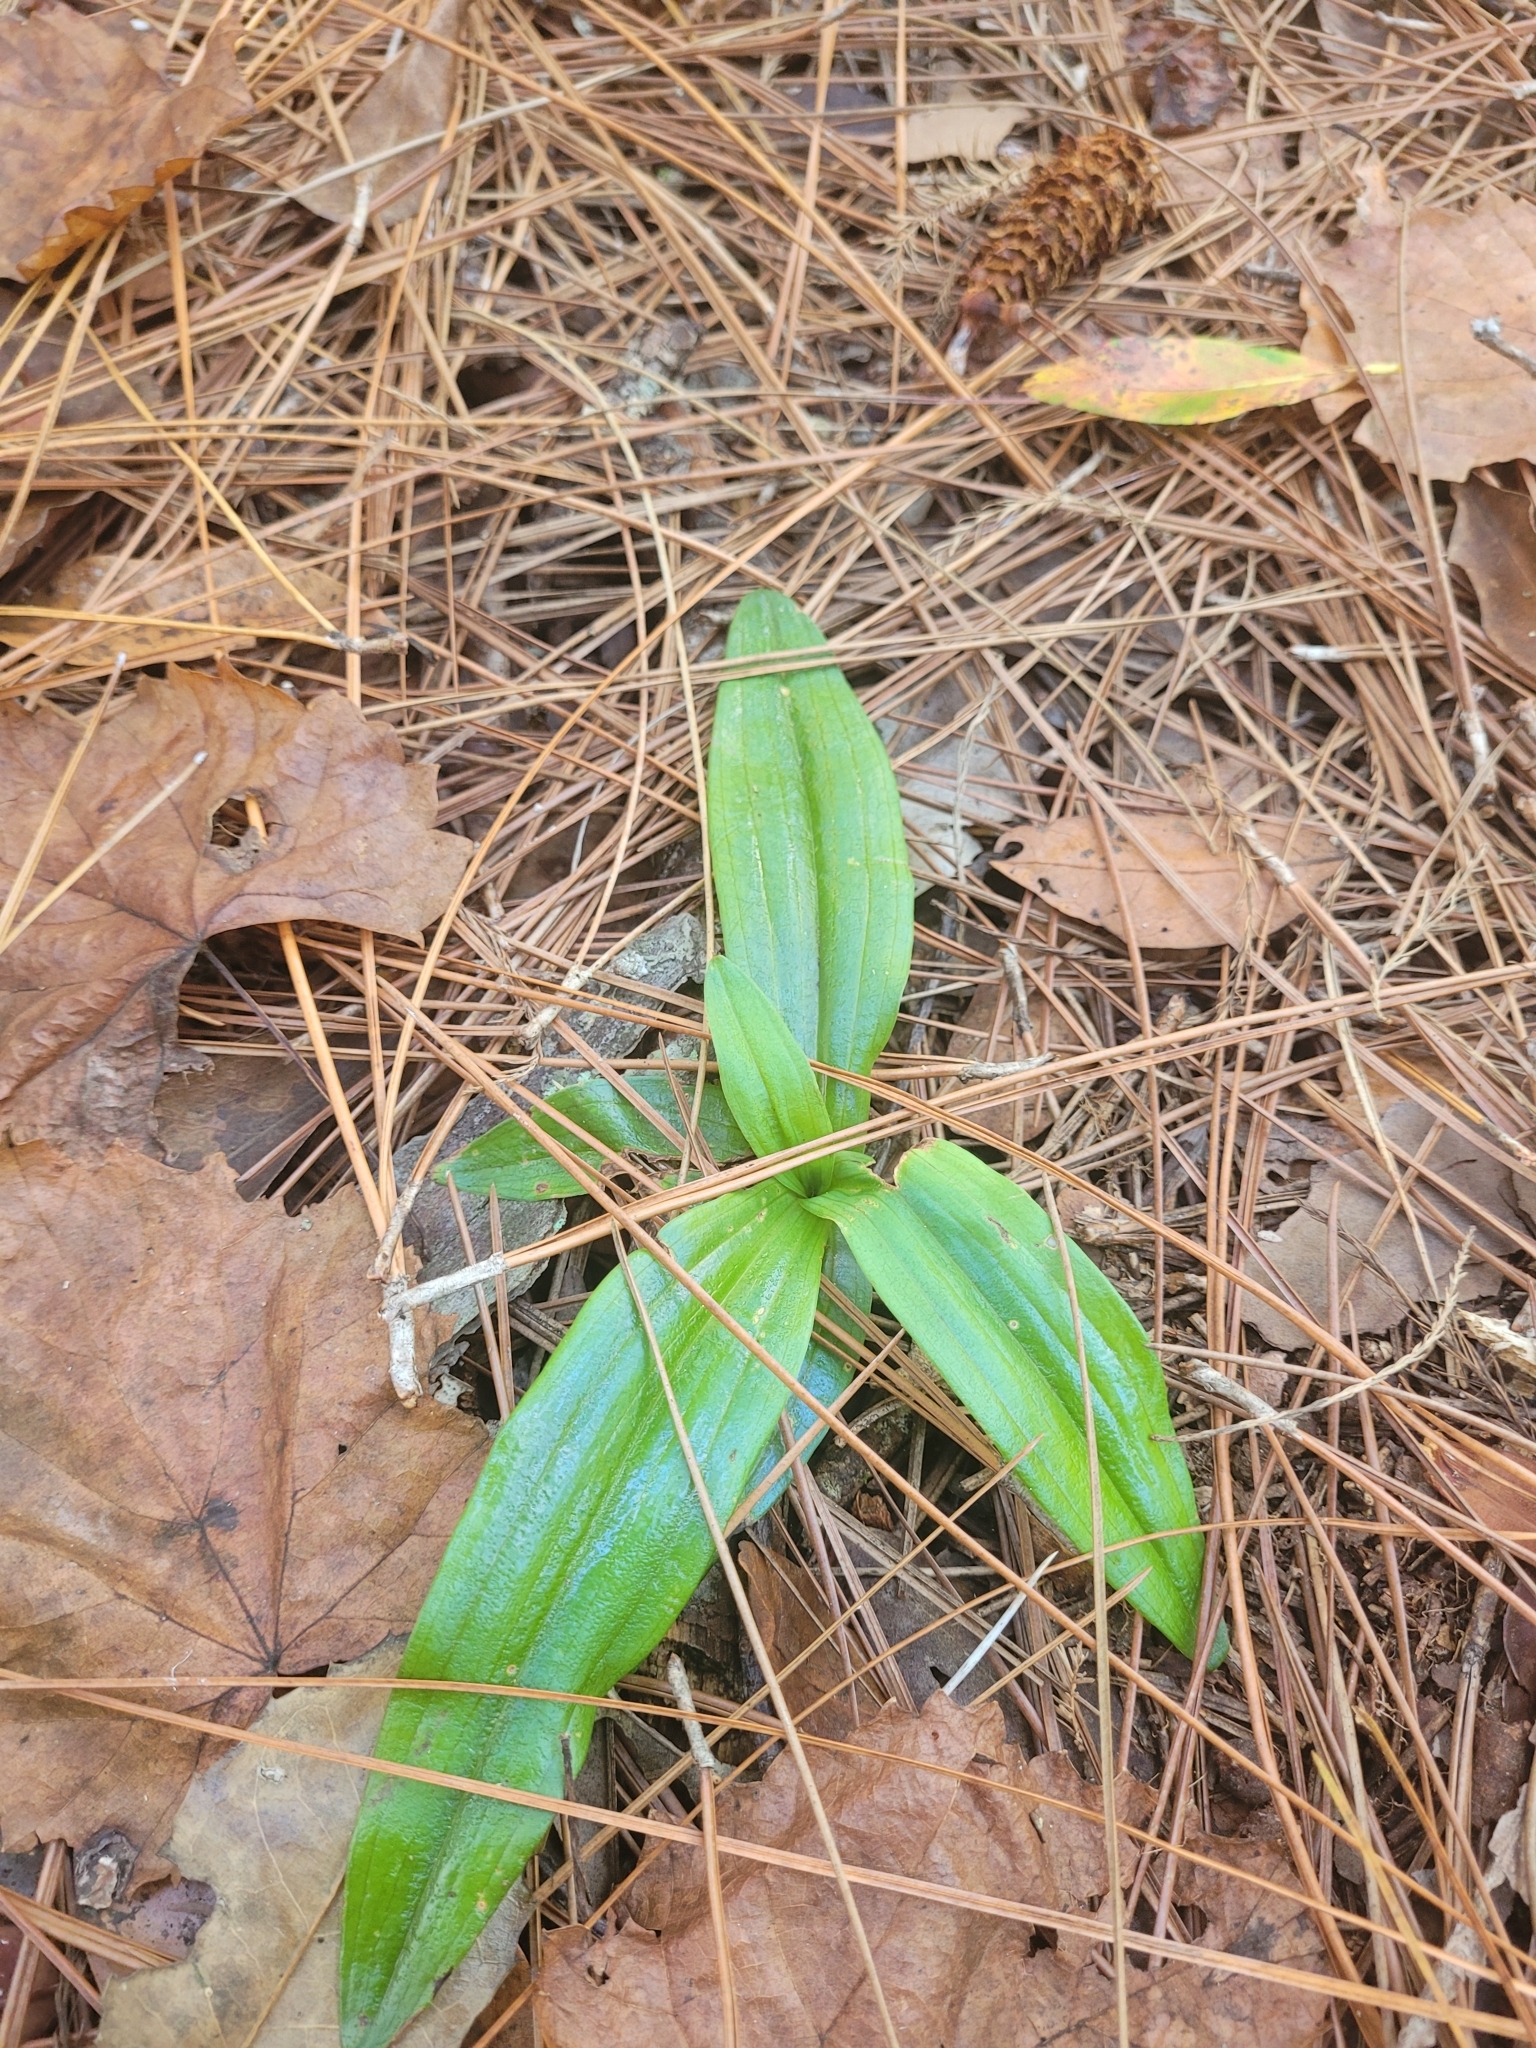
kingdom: Plantae
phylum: Tracheophyta
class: Liliopsida
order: Asparagales
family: Orchidaceae
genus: Habenaria
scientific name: Habenaria floribunda
